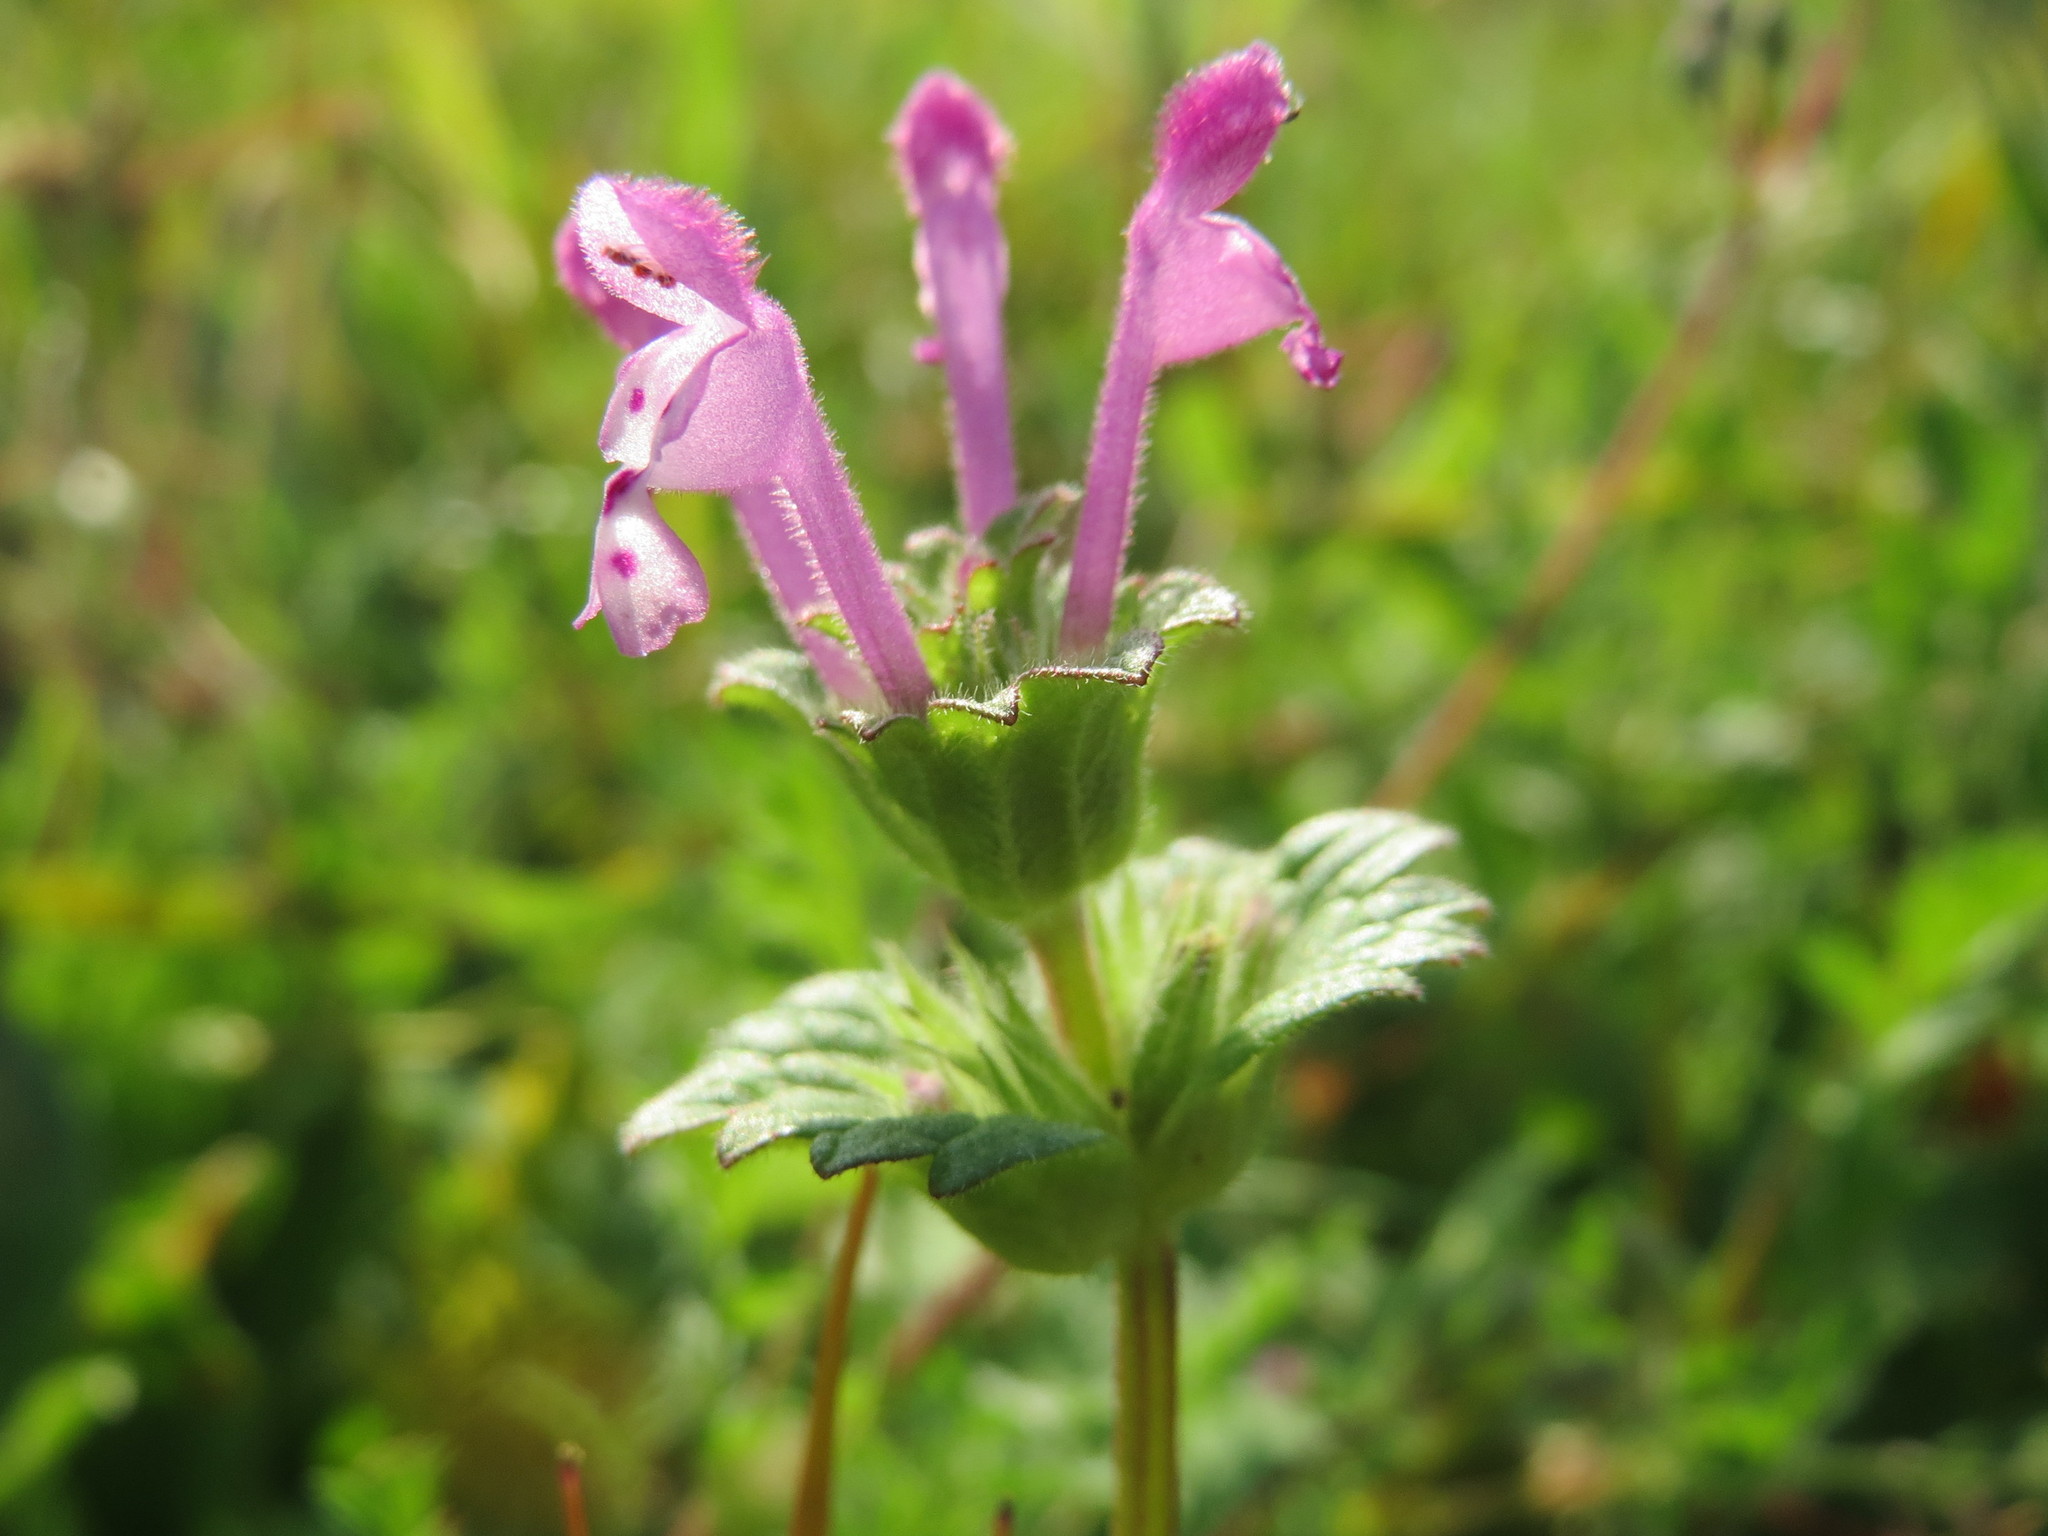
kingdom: Plantae
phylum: Tracheophyta
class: Magnoliopsida
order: Lamiales
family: Lamiaceae
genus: Lamium
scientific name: Lamium amplexicaule
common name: Henbit dead-nettle
